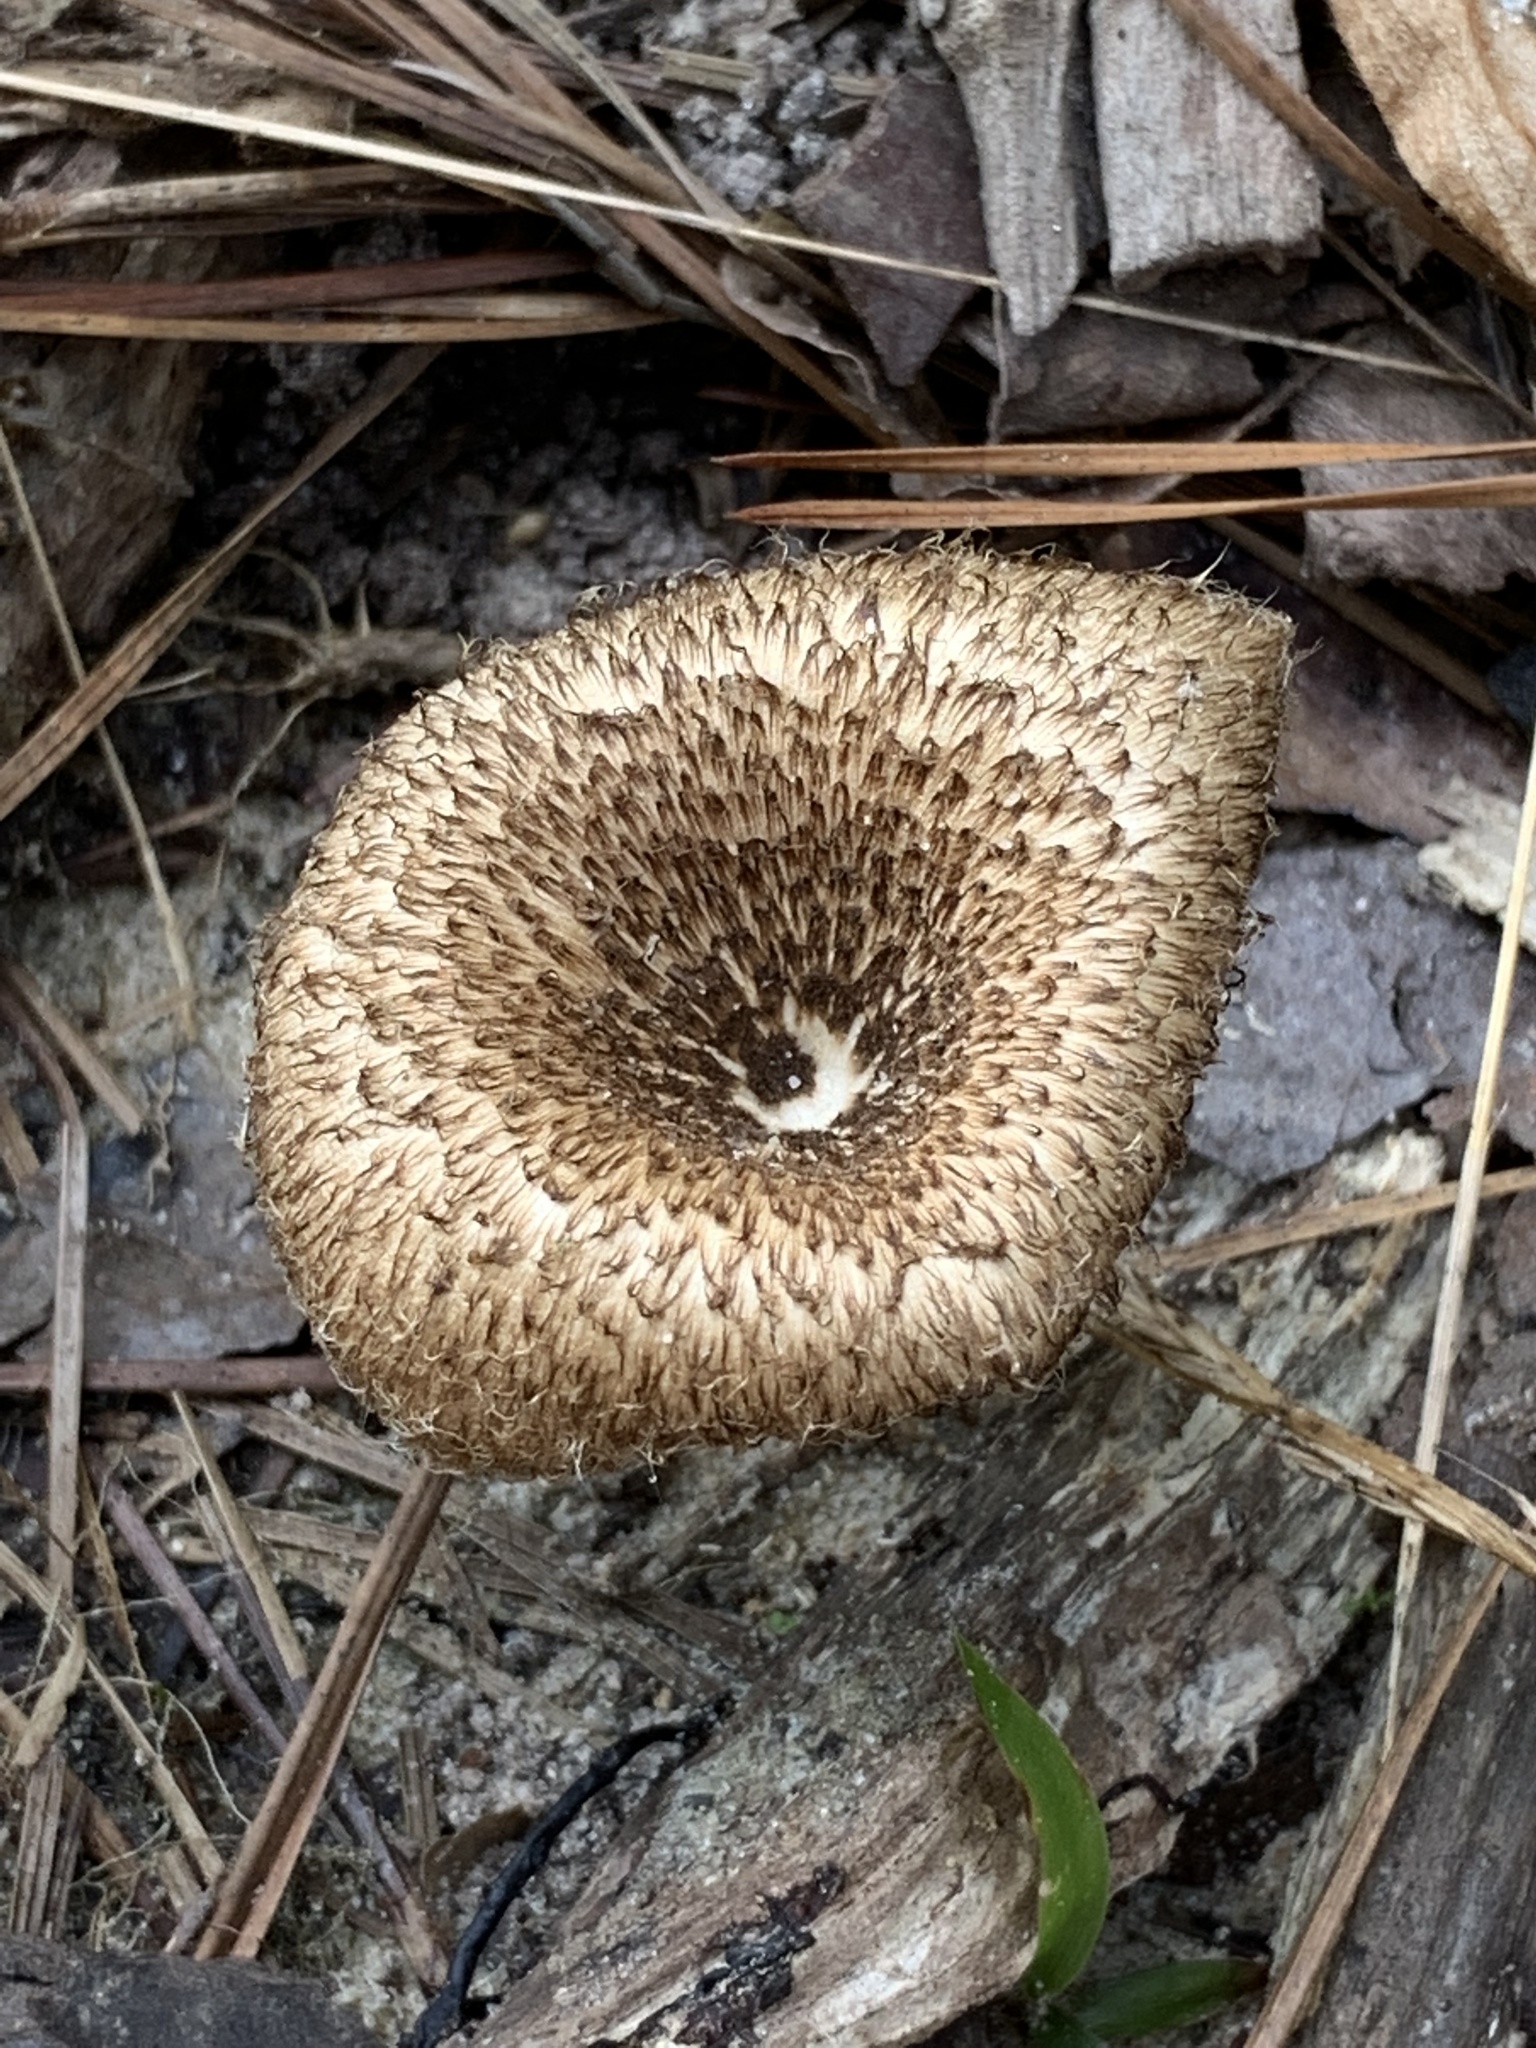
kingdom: Fungi
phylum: Basidiomycota
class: Agaricomycetes
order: Polyporales
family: Polyporaceae
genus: Lentinus
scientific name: Lentinus crinitus
